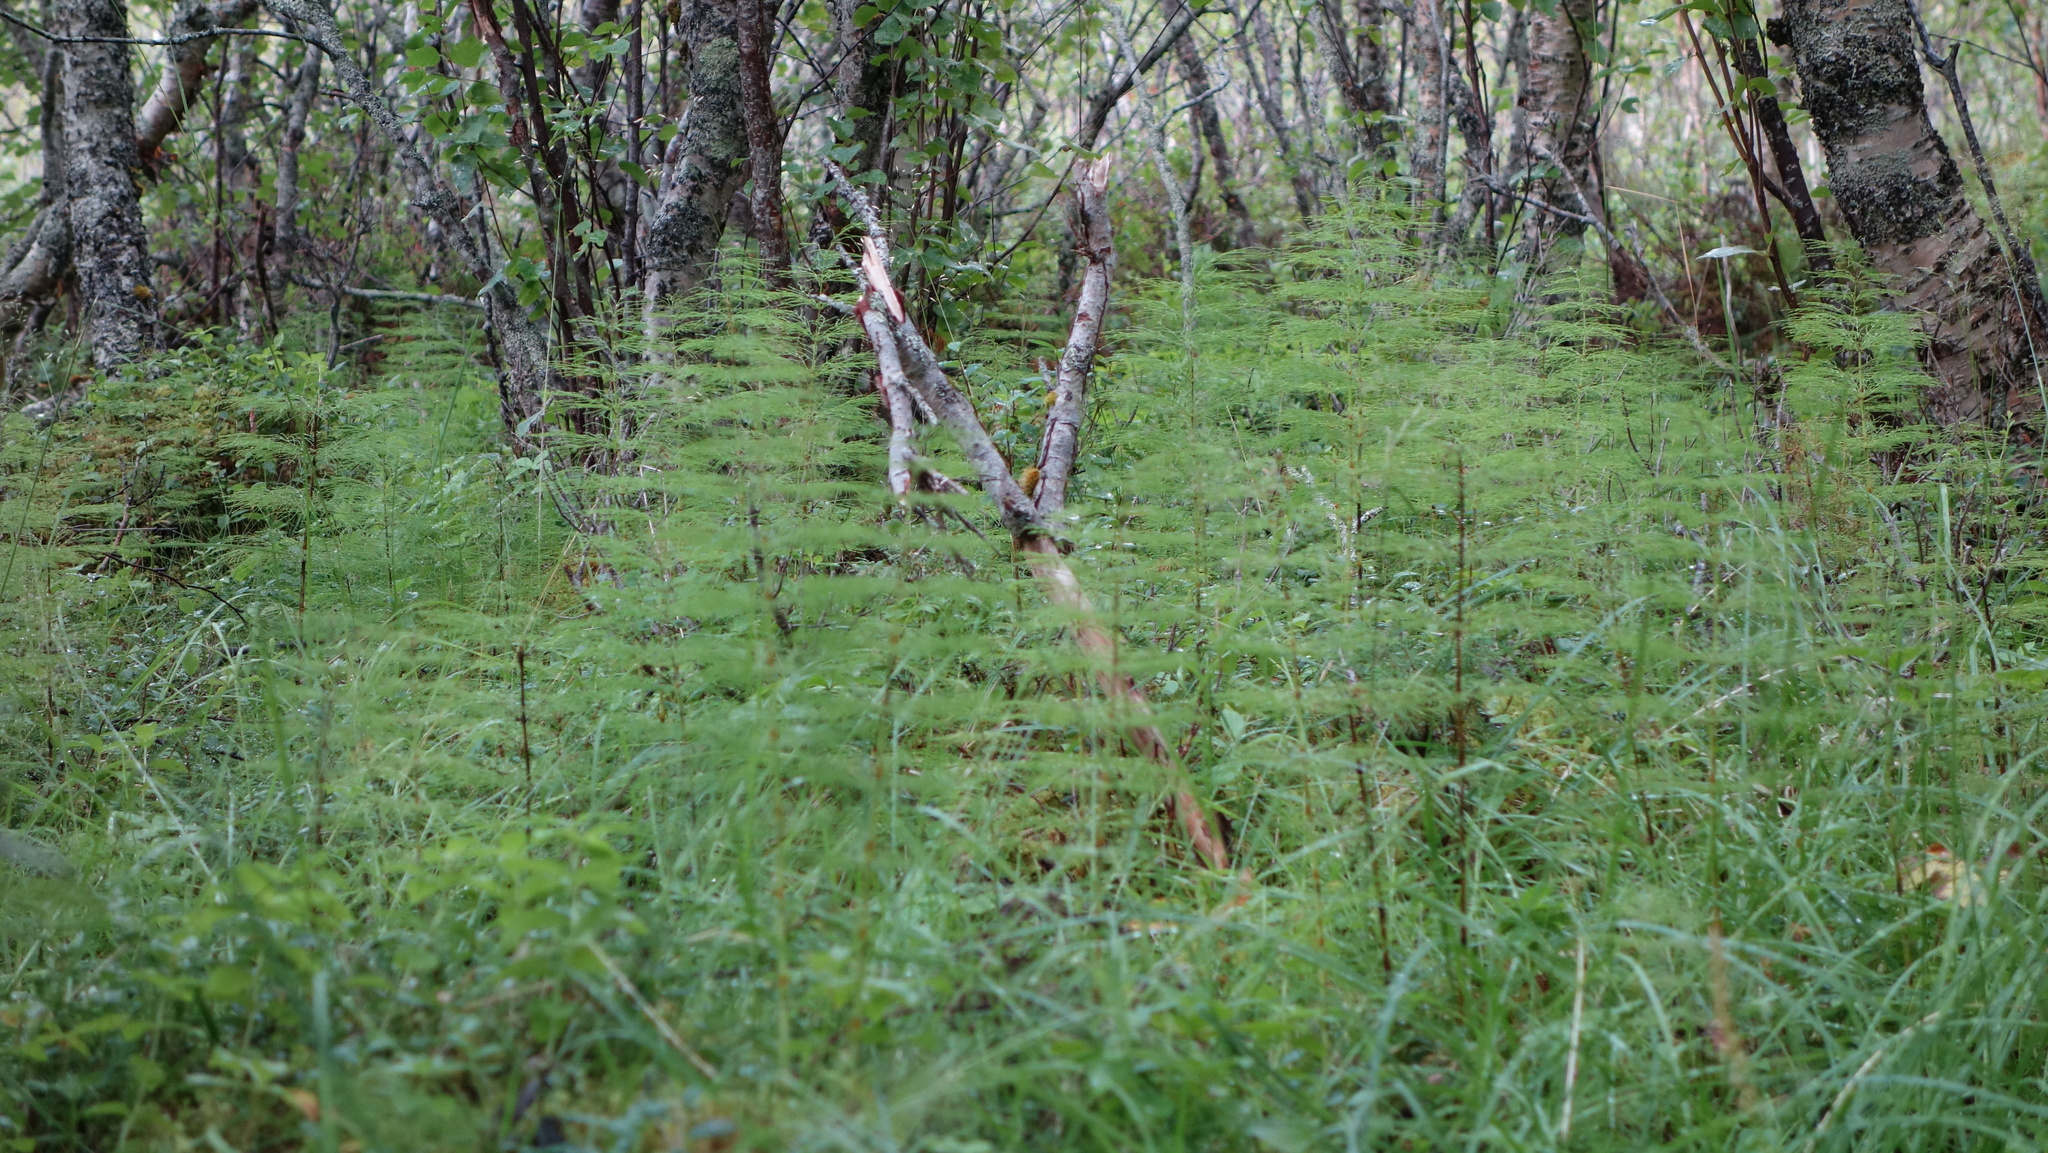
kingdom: Plantae
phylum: Tracheophyta
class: Polypodiopsida
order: Equisetales
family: Equisetaceae
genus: Equisetum
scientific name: Equisetum sylvaticum
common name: Wood horsetail
